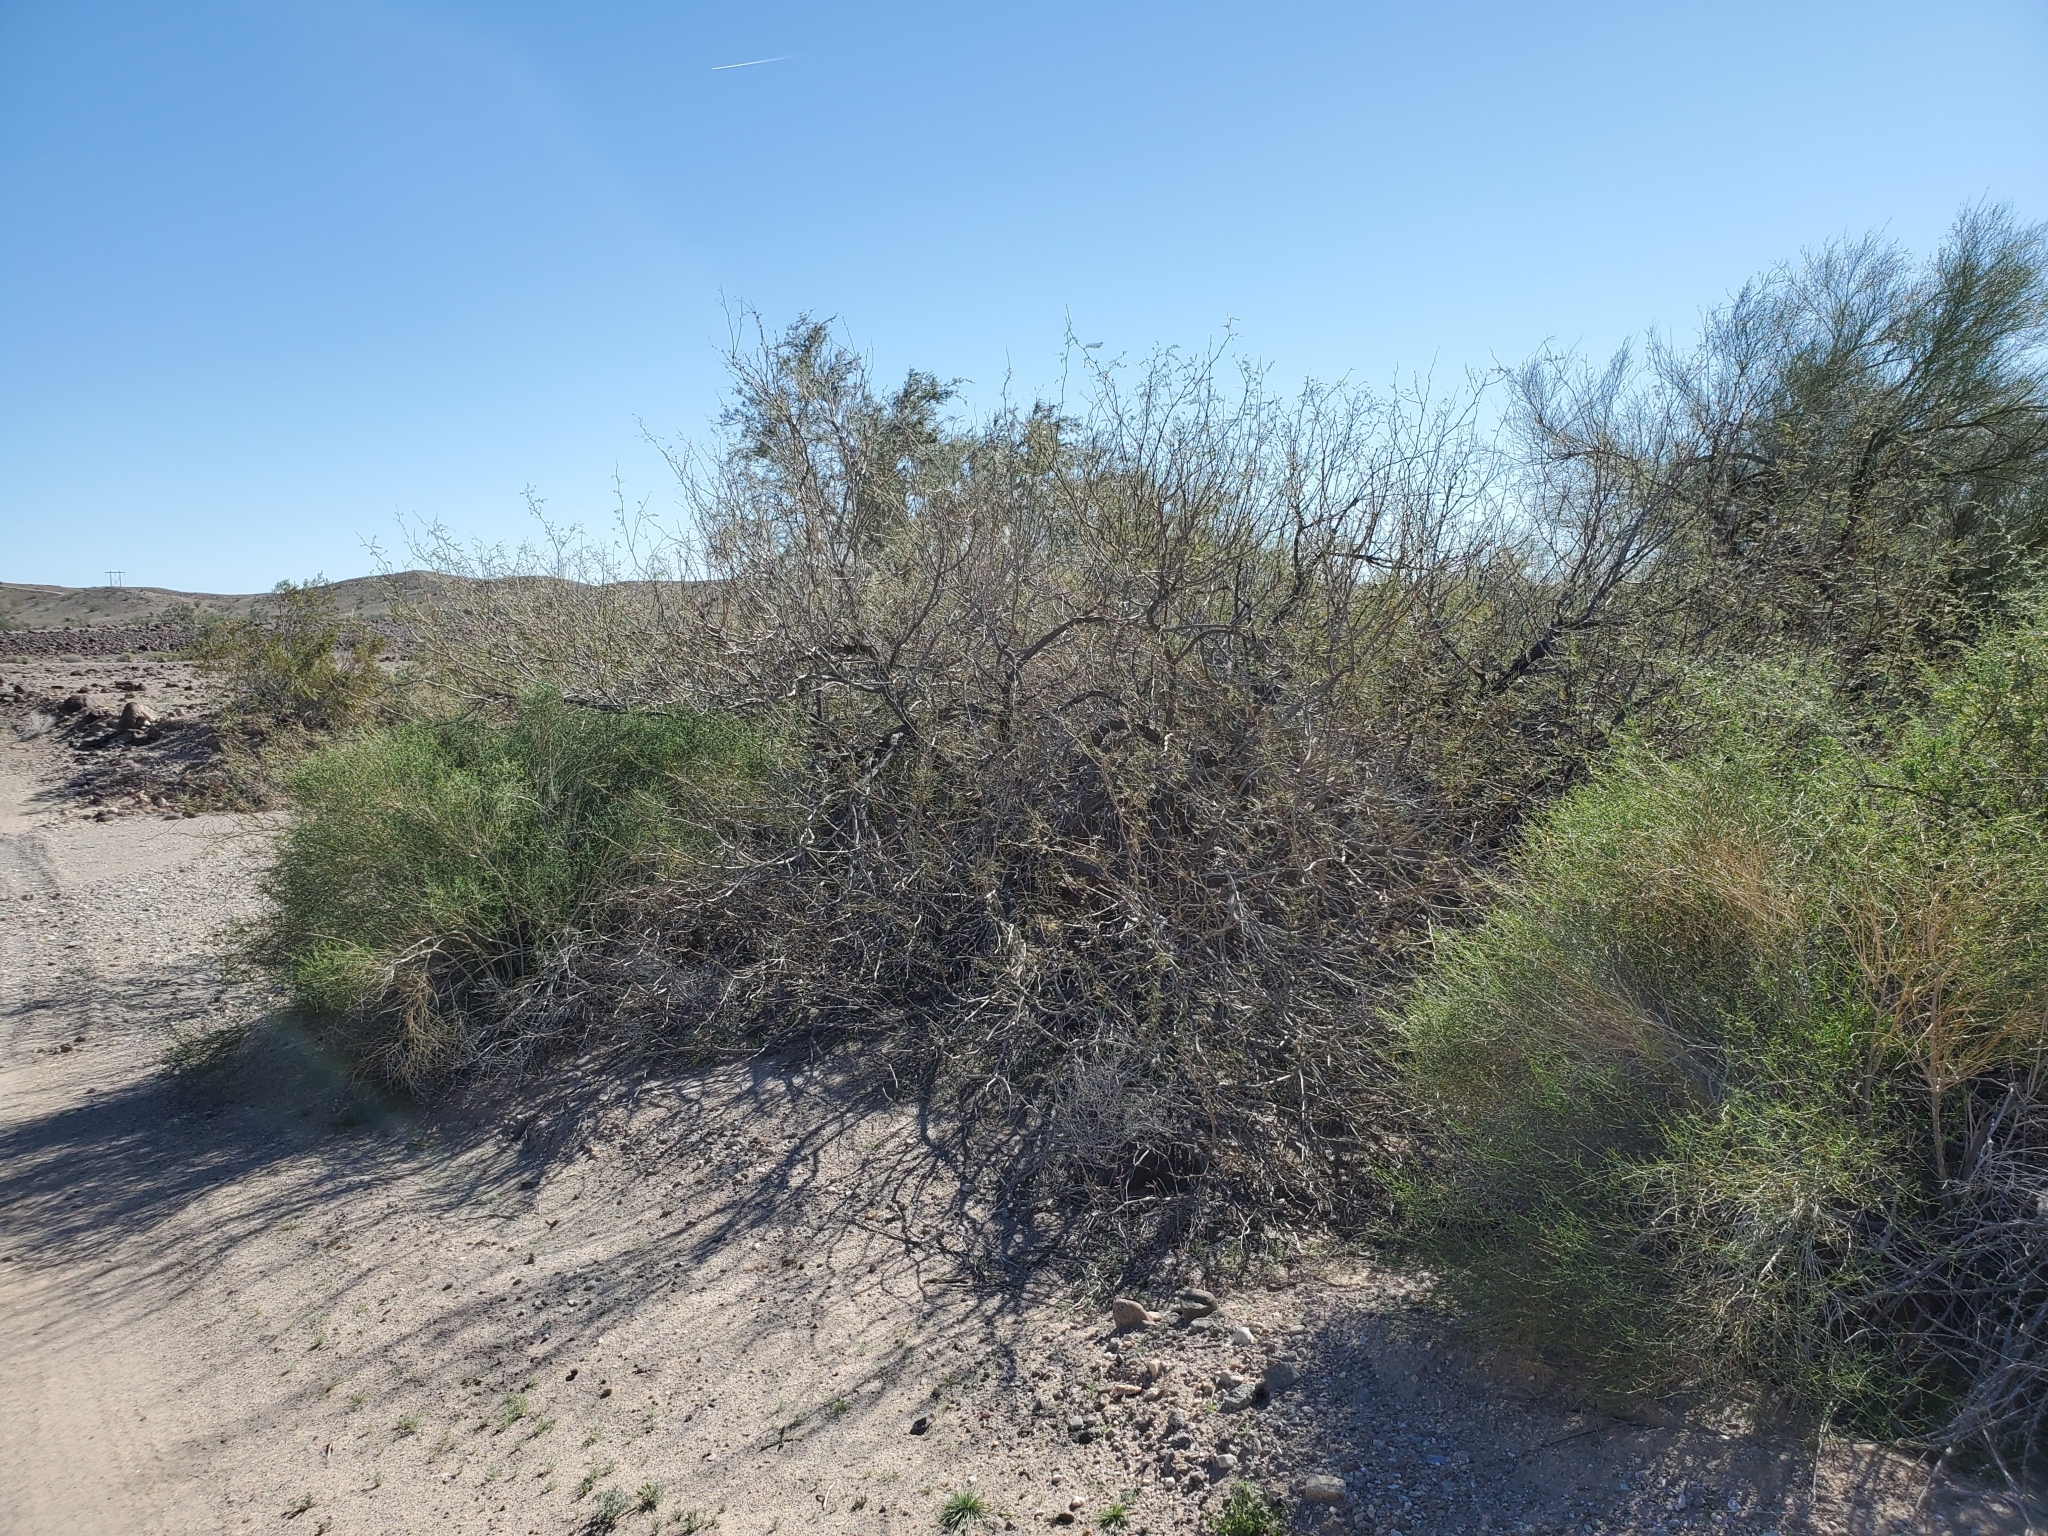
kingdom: Plantae
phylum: Tracheophyta
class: Magnoliopsida
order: Fabales
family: Fabaceae
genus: Prosopis
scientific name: Prosopis pubescens
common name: Screw-bean
